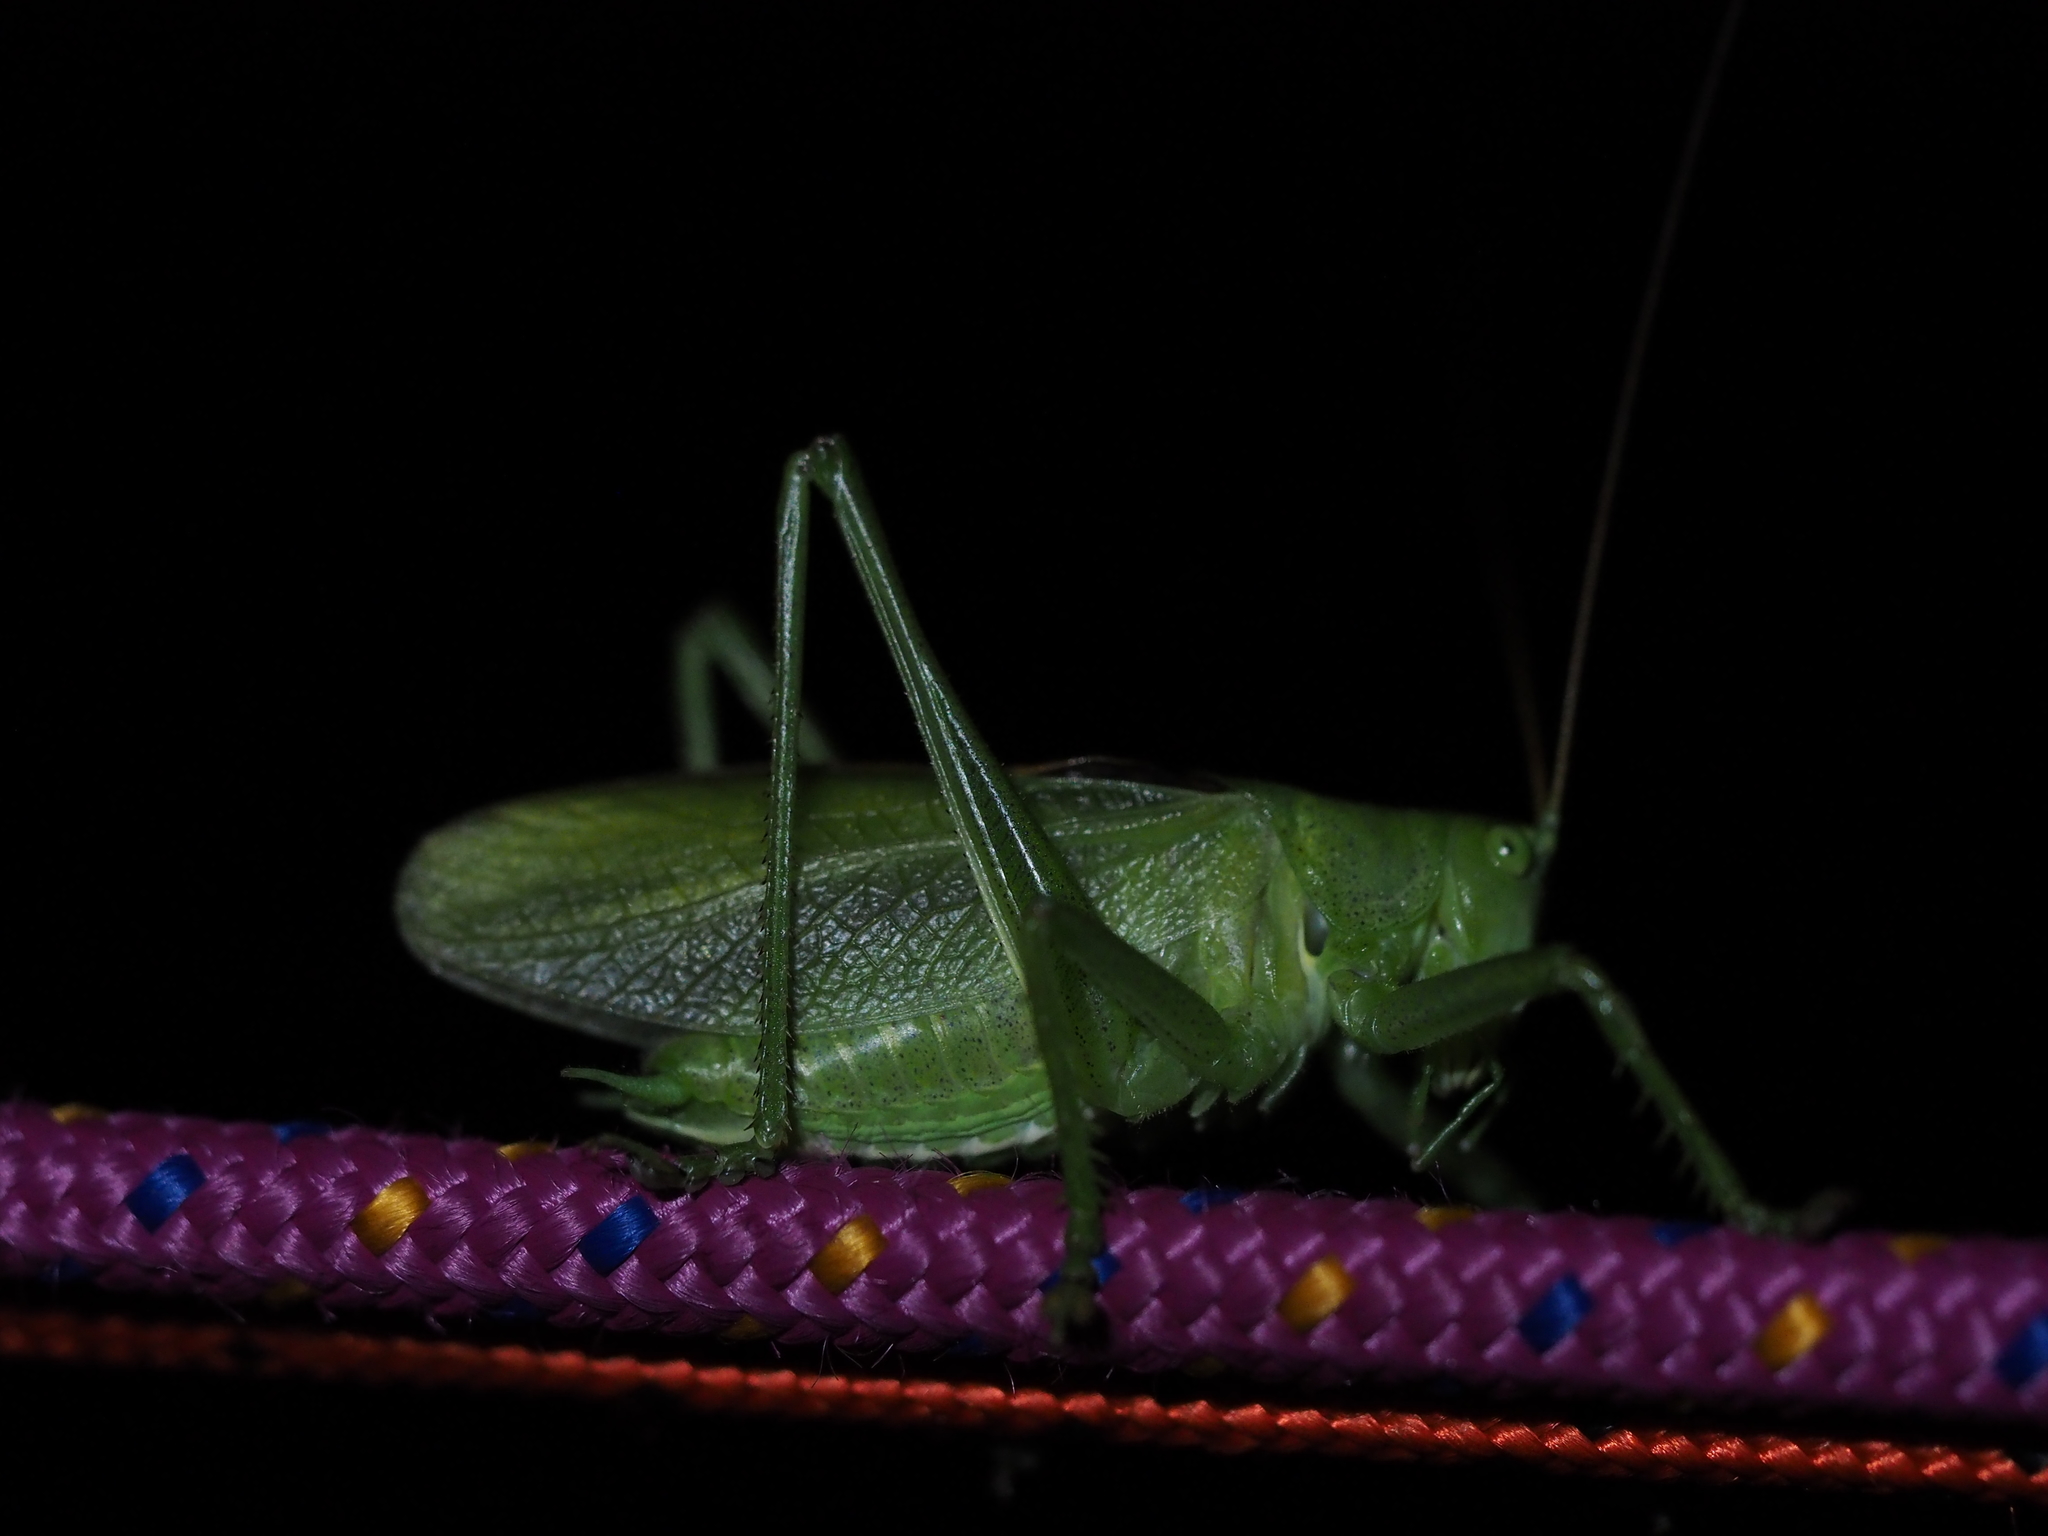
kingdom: Animalia
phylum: Arthropoda
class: Insecta
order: Orthoptera
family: Tettigoniidae
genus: Tettigonia
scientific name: Tettigonia cantans
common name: Upland green bush-cricket
